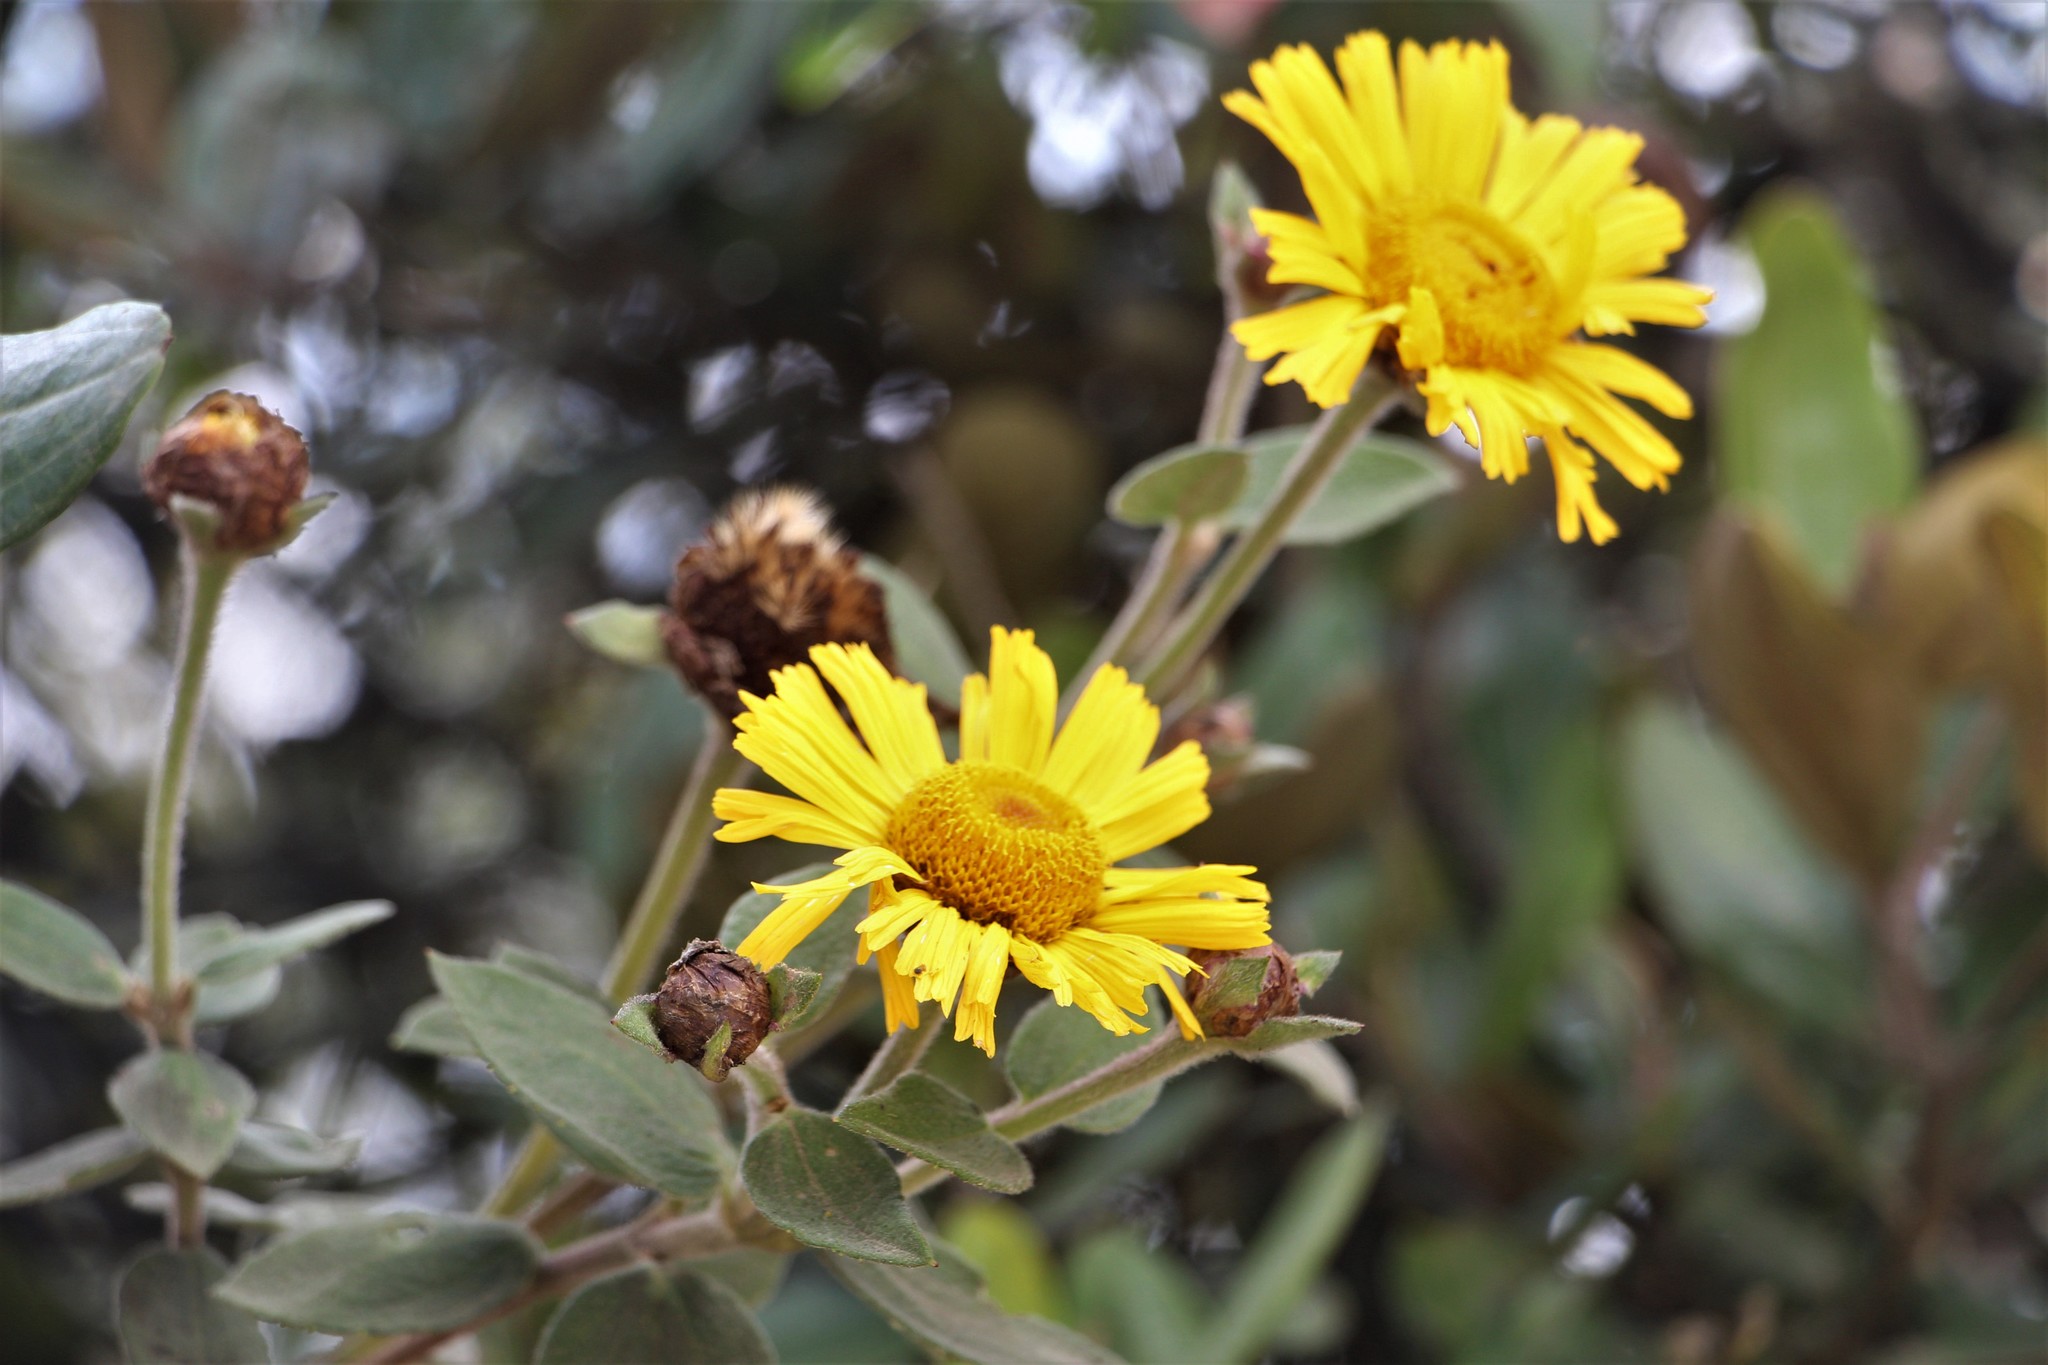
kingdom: Plantae
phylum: Tracheophyta
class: Magnoliopsida
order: Asterales
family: Asteraceae
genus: Calea
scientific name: Calea peruviana
